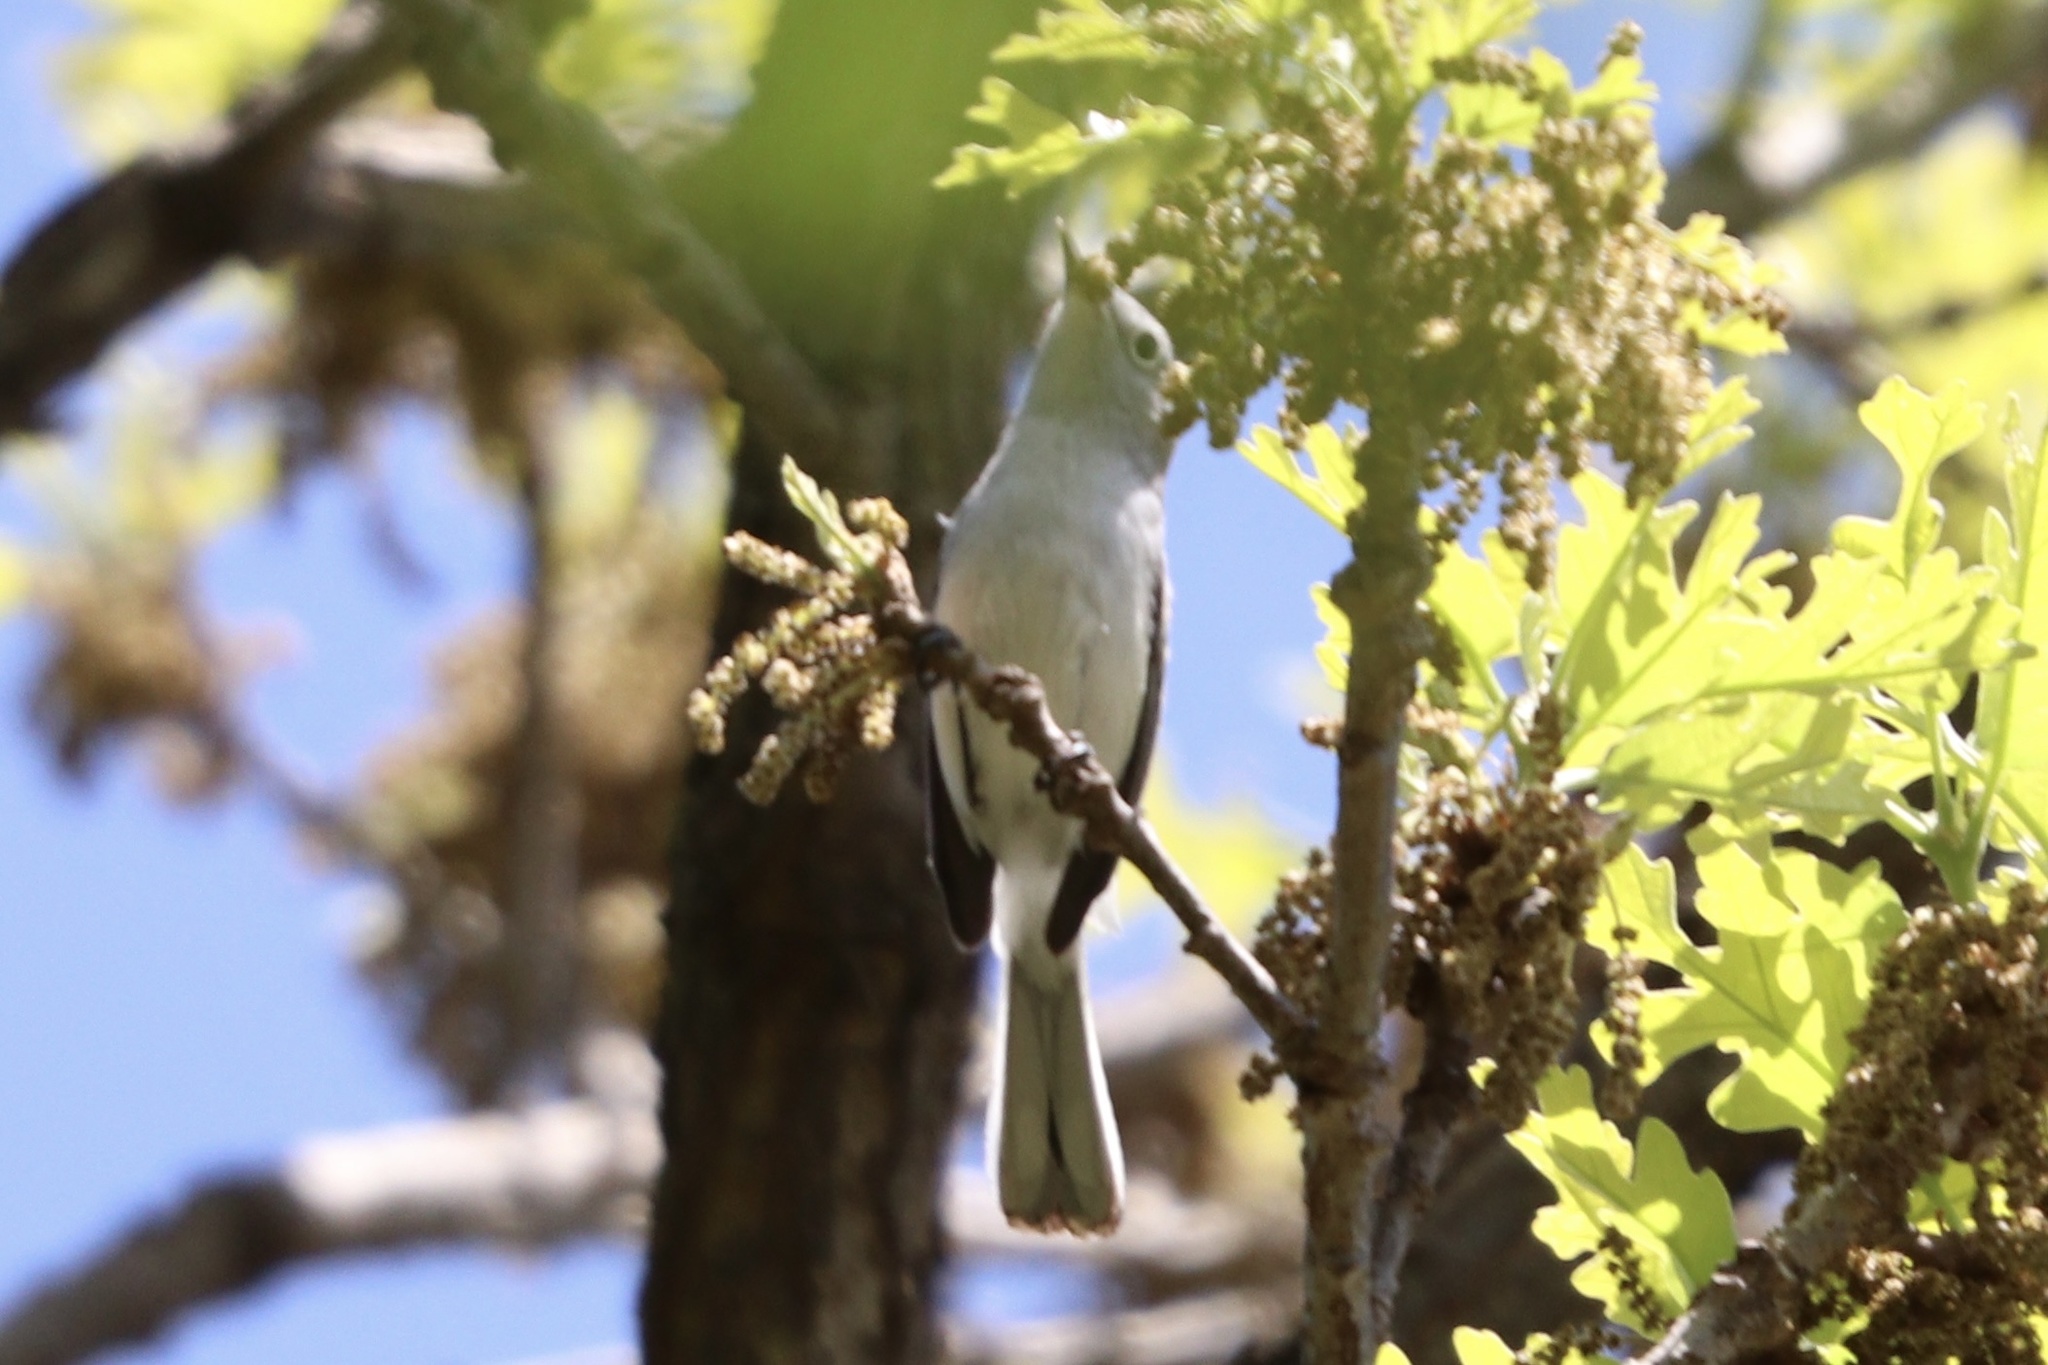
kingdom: Animalia
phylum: Chordata
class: Aves
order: Passeriformes
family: Polioptilidae
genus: Polioptila
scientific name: Polioptila caerulea
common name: Blue-gray gnatcatcher
